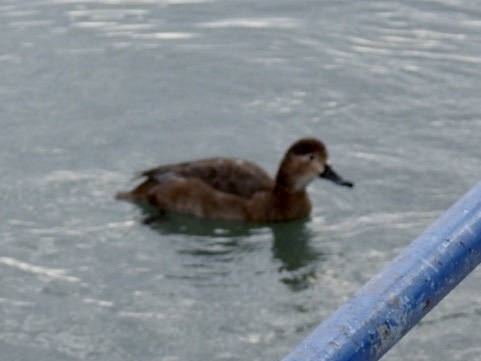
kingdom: Animalia
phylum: Chordata
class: Aves
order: Anseriformes
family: Anatidae
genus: Aythya
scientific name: Aythya americana
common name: Redhead
